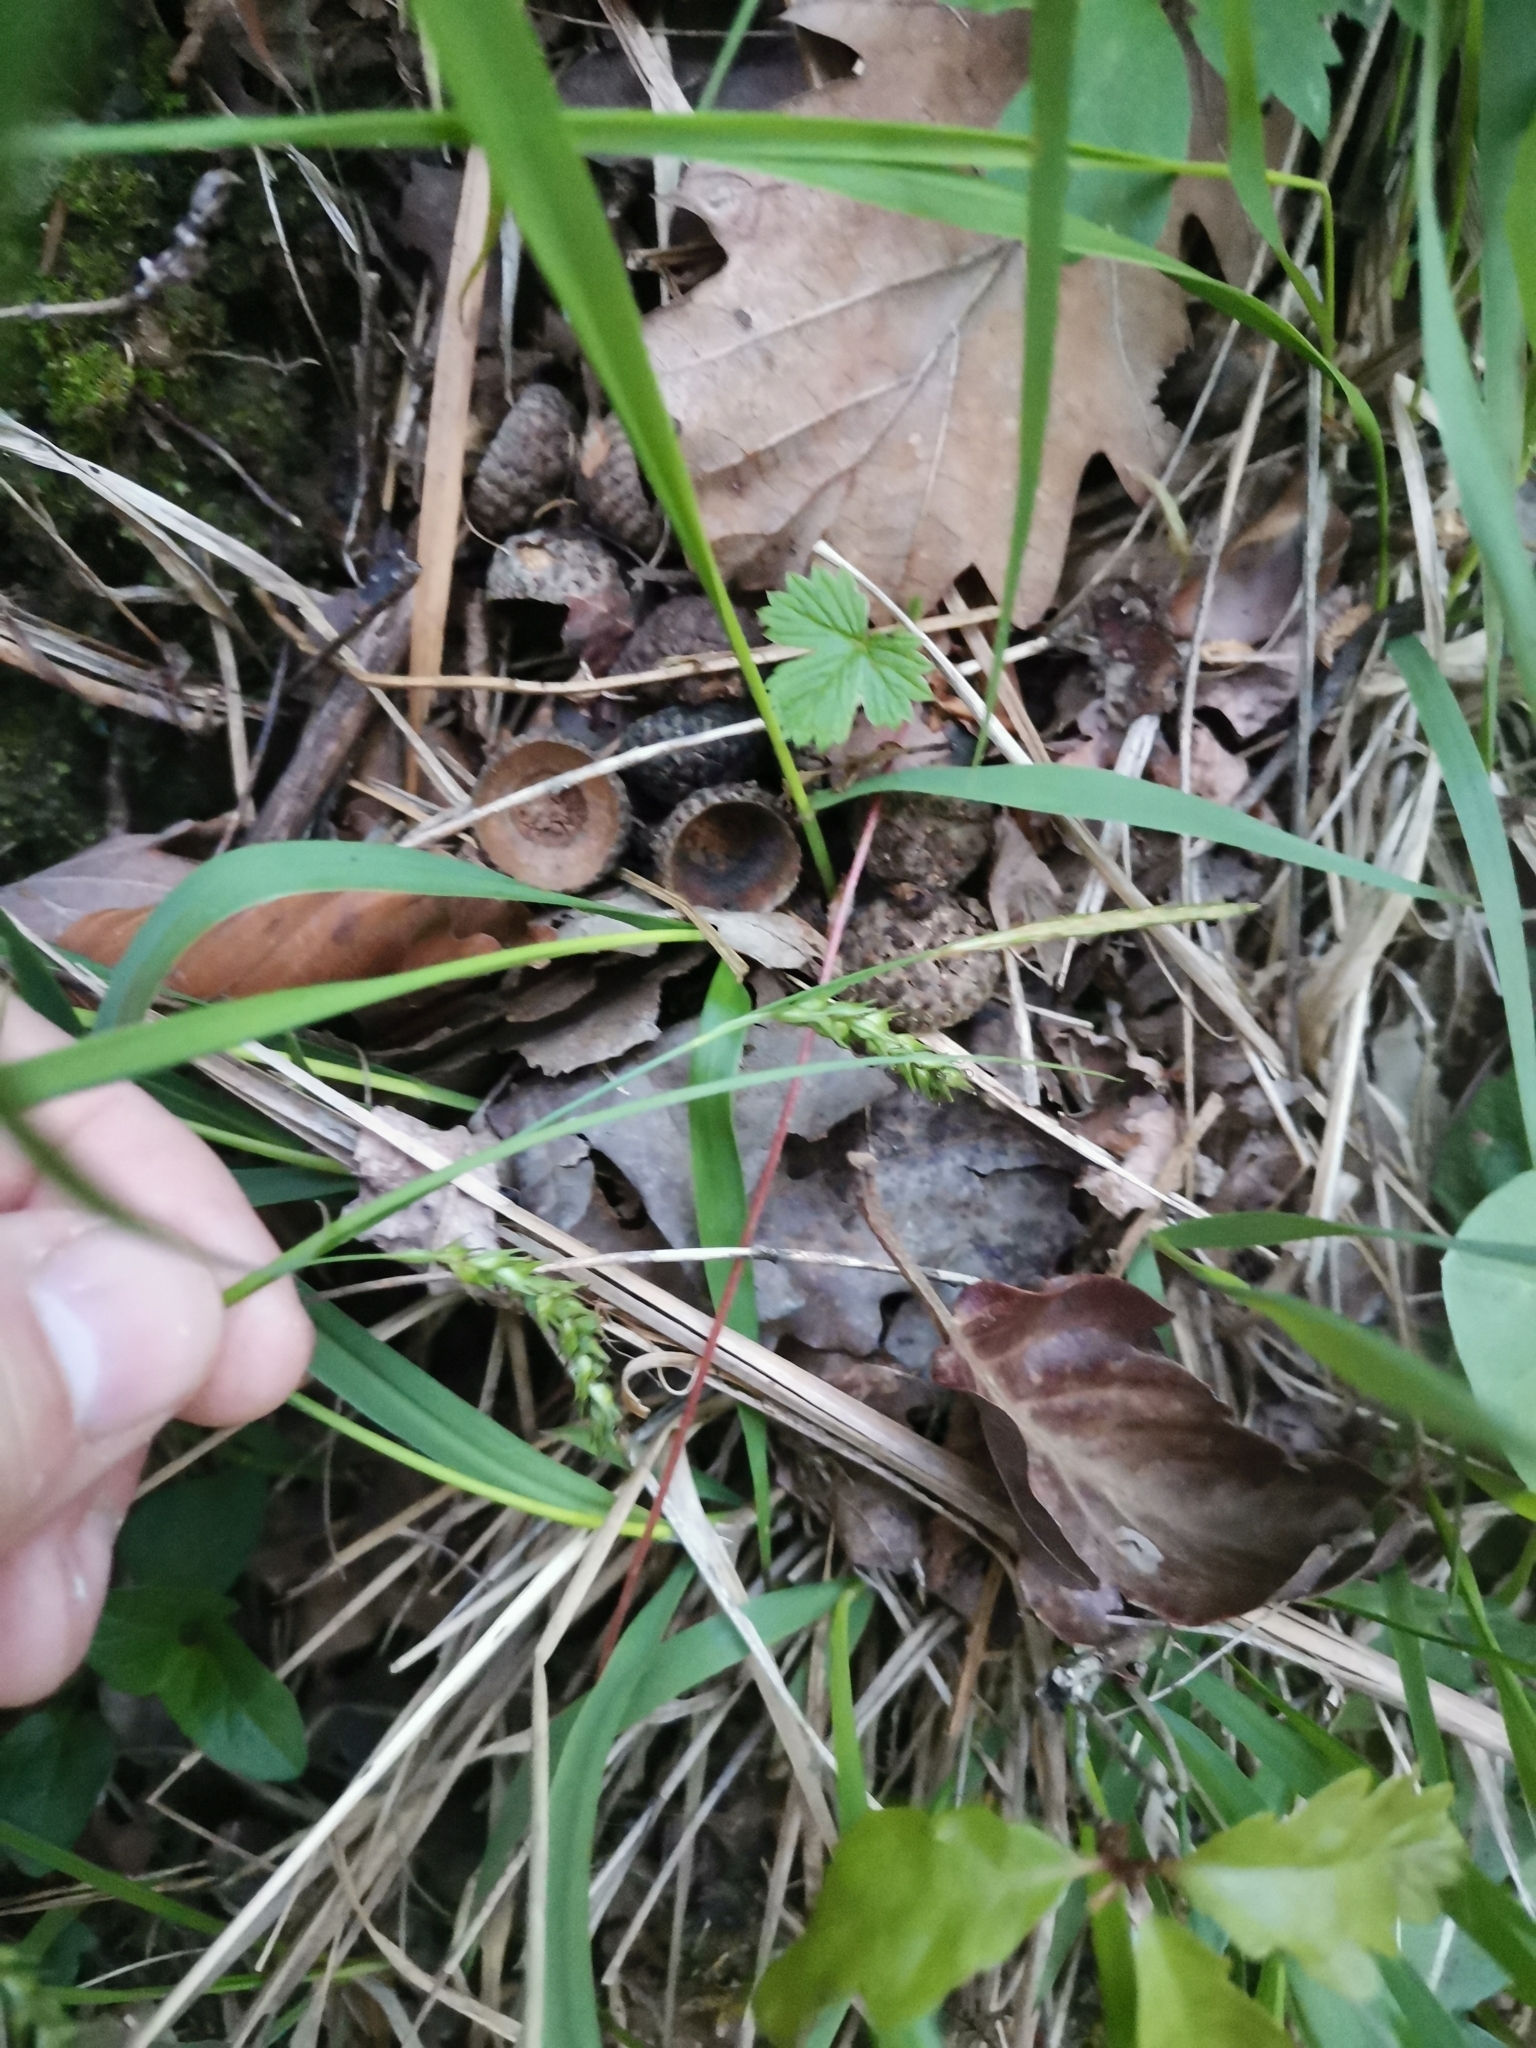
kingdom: Plantae
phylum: Tracheophyta
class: Liliopsida
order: Poales
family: Cyperaceae
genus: Carex
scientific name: Carex sylvatica
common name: Wood-sedge
